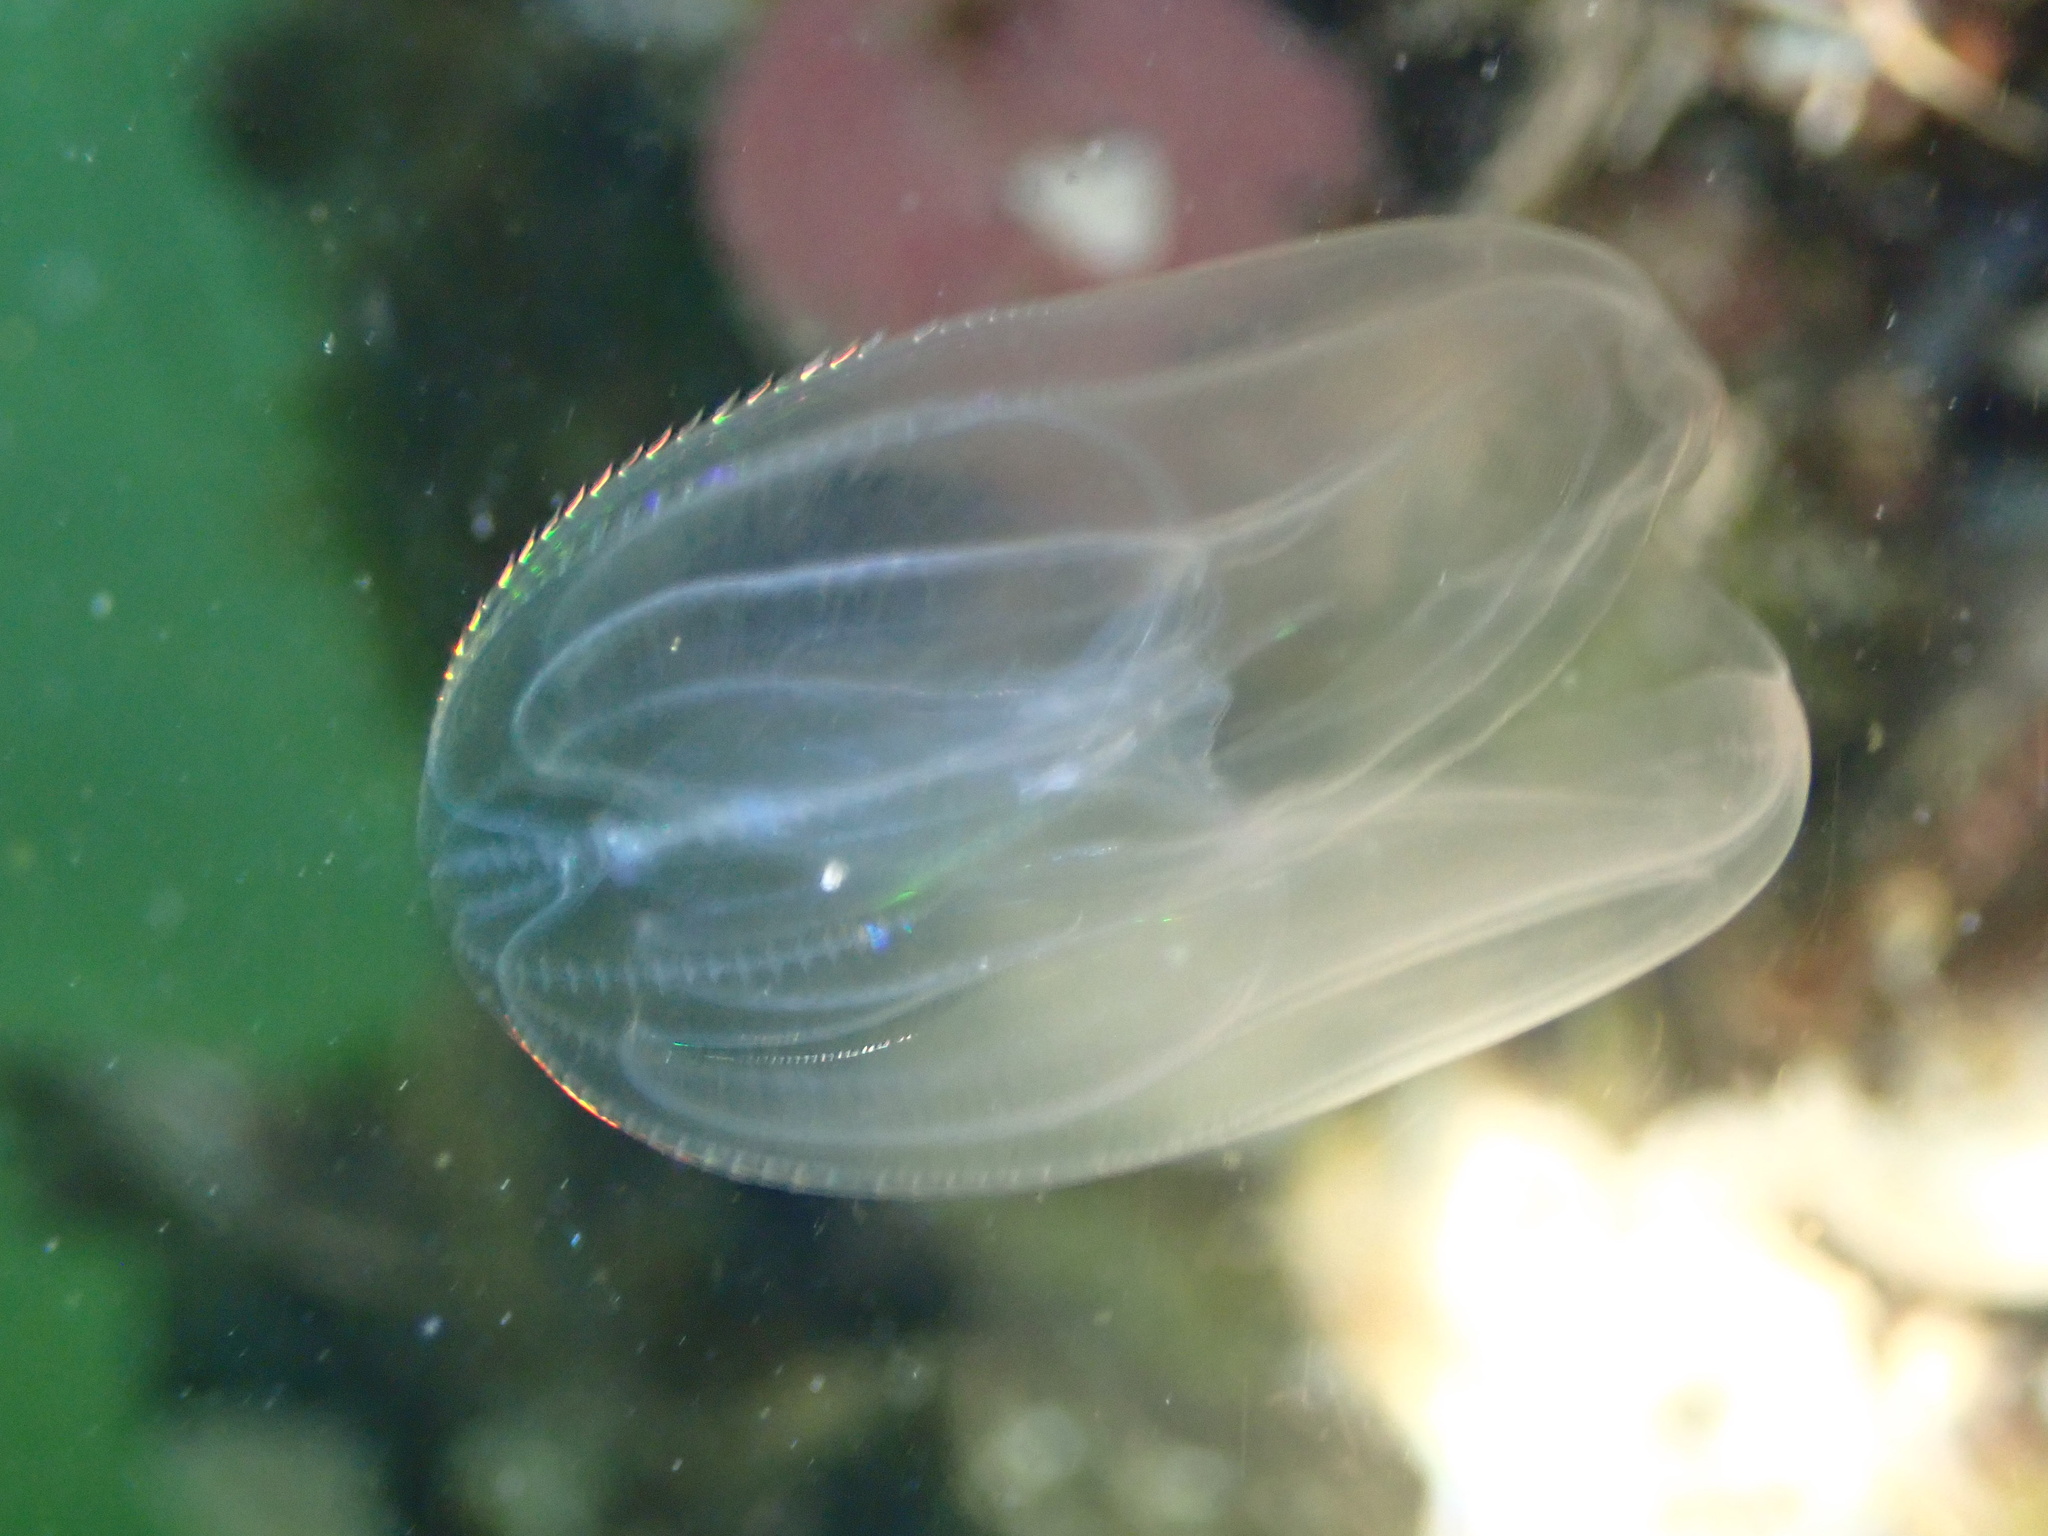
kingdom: Animalia
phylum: Ctenophora
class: Tentaculata
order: Lobata
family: Bolinopsidae
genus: Mnemiopsis
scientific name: Mnemiopsis leidyi
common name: American comb jelly
